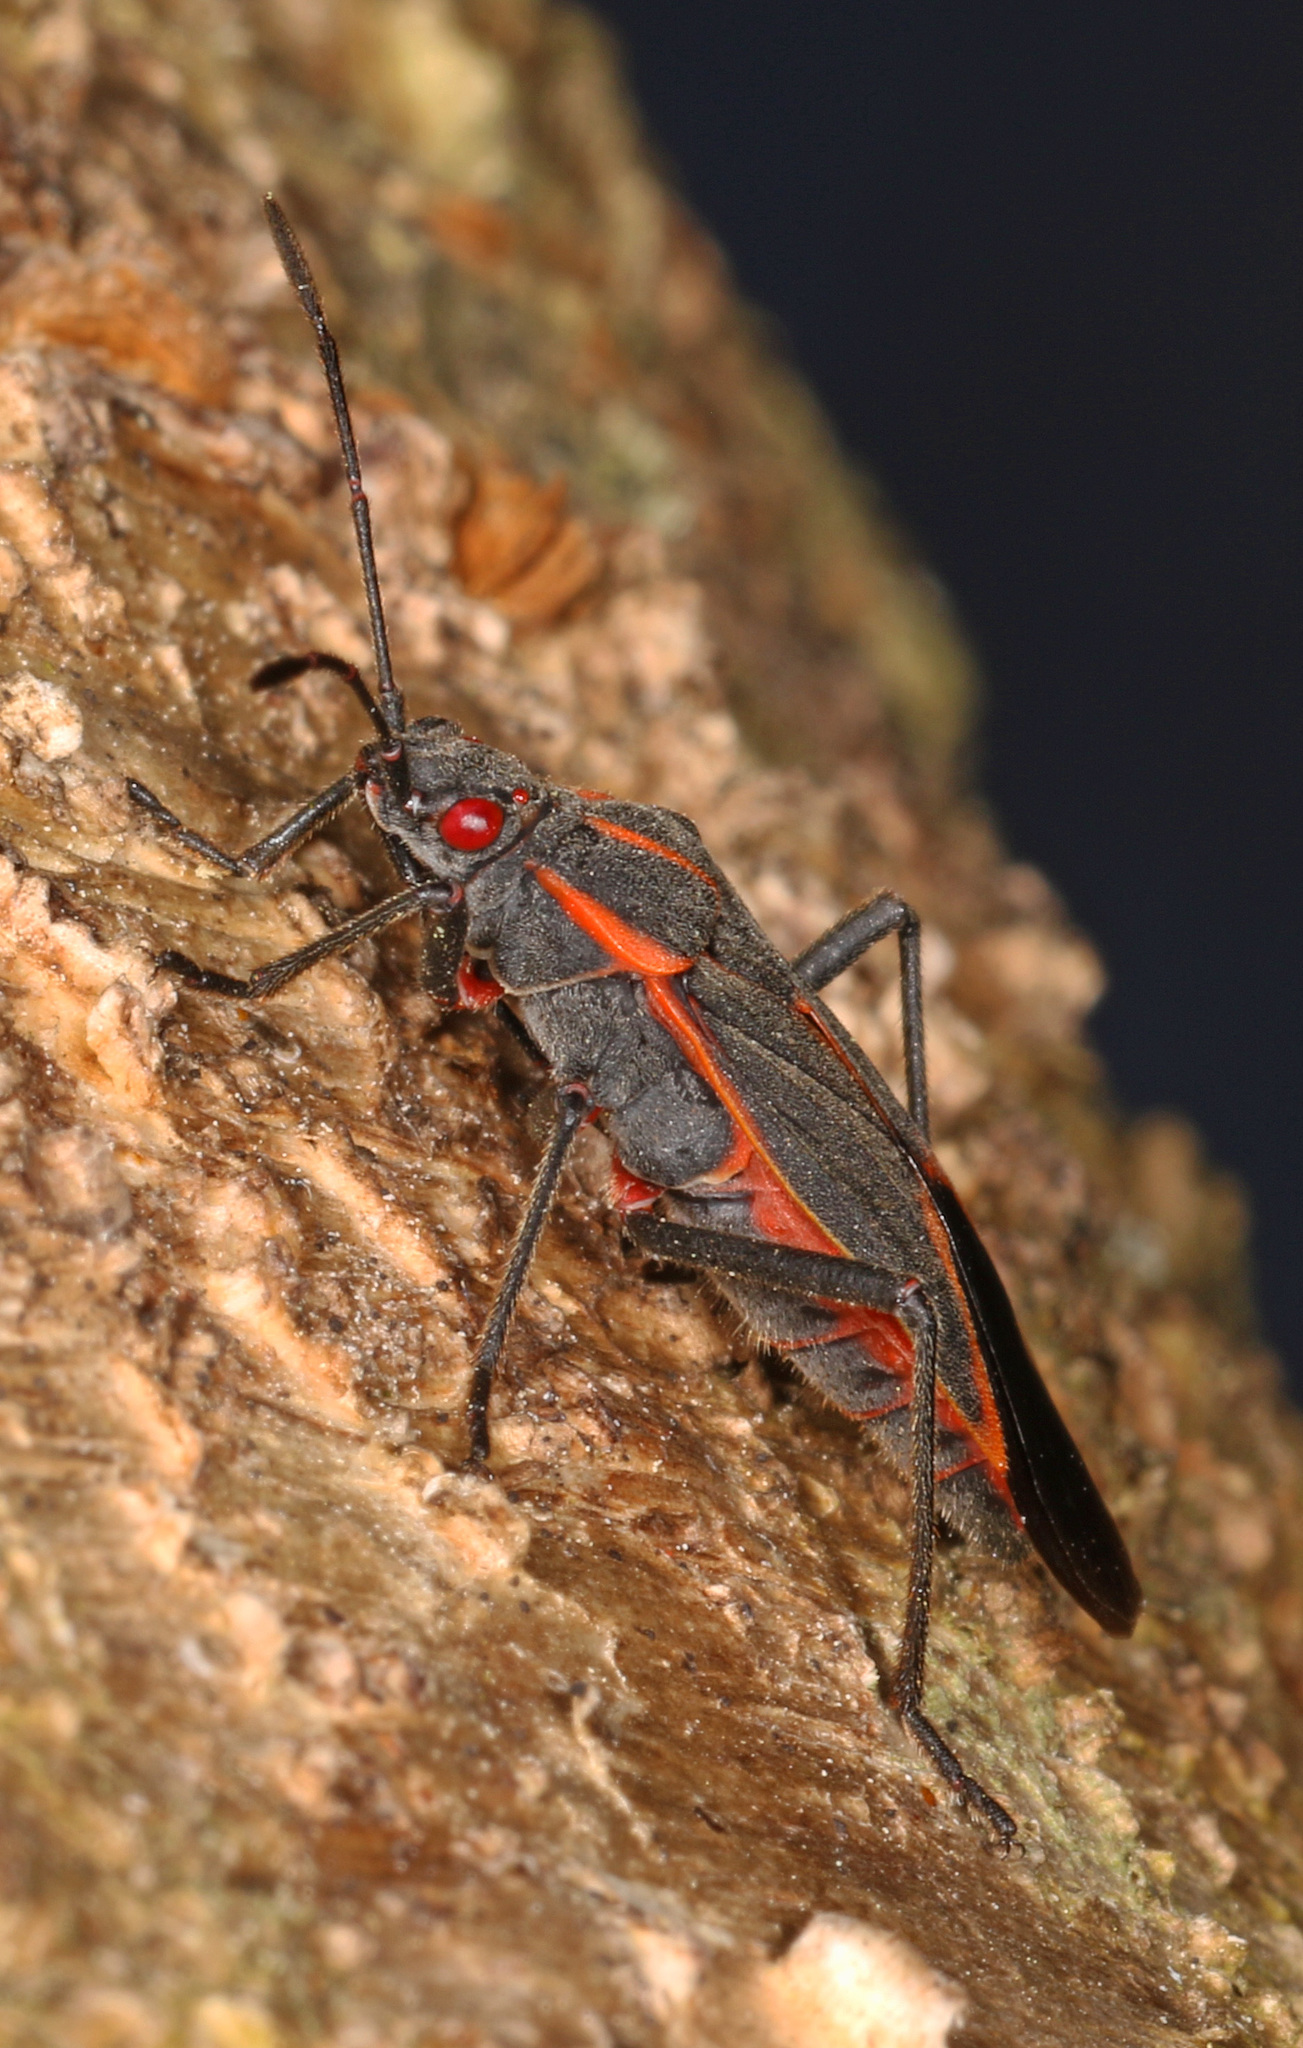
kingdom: Animalia
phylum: Arthropoda
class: Insecta
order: Hemiptera
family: Rhopalidae
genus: Boisea
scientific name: Boisea trivittata
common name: Boxelder bug
